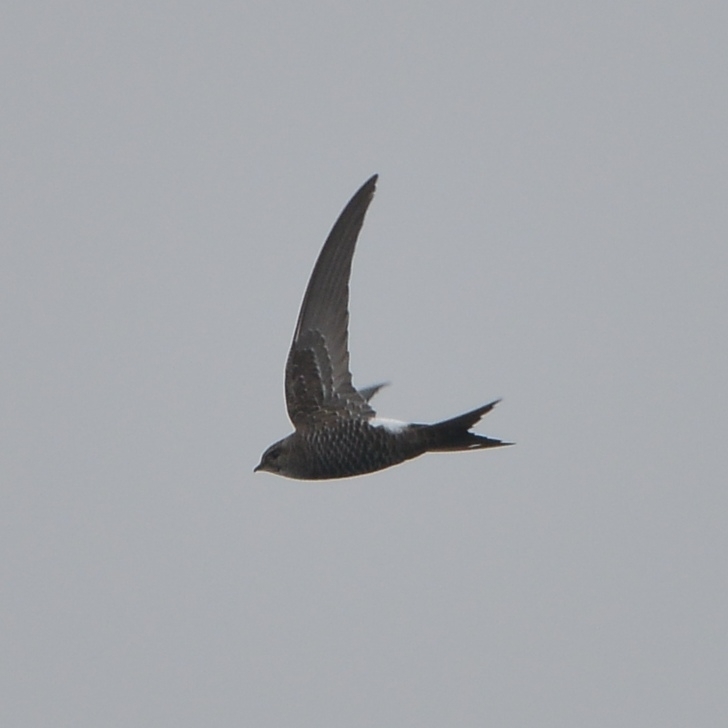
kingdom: Animalia
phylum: Chordata
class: Aves
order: Apodiformes
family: Apodidae
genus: Apus
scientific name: Apus pacificus
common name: Pacific swift
